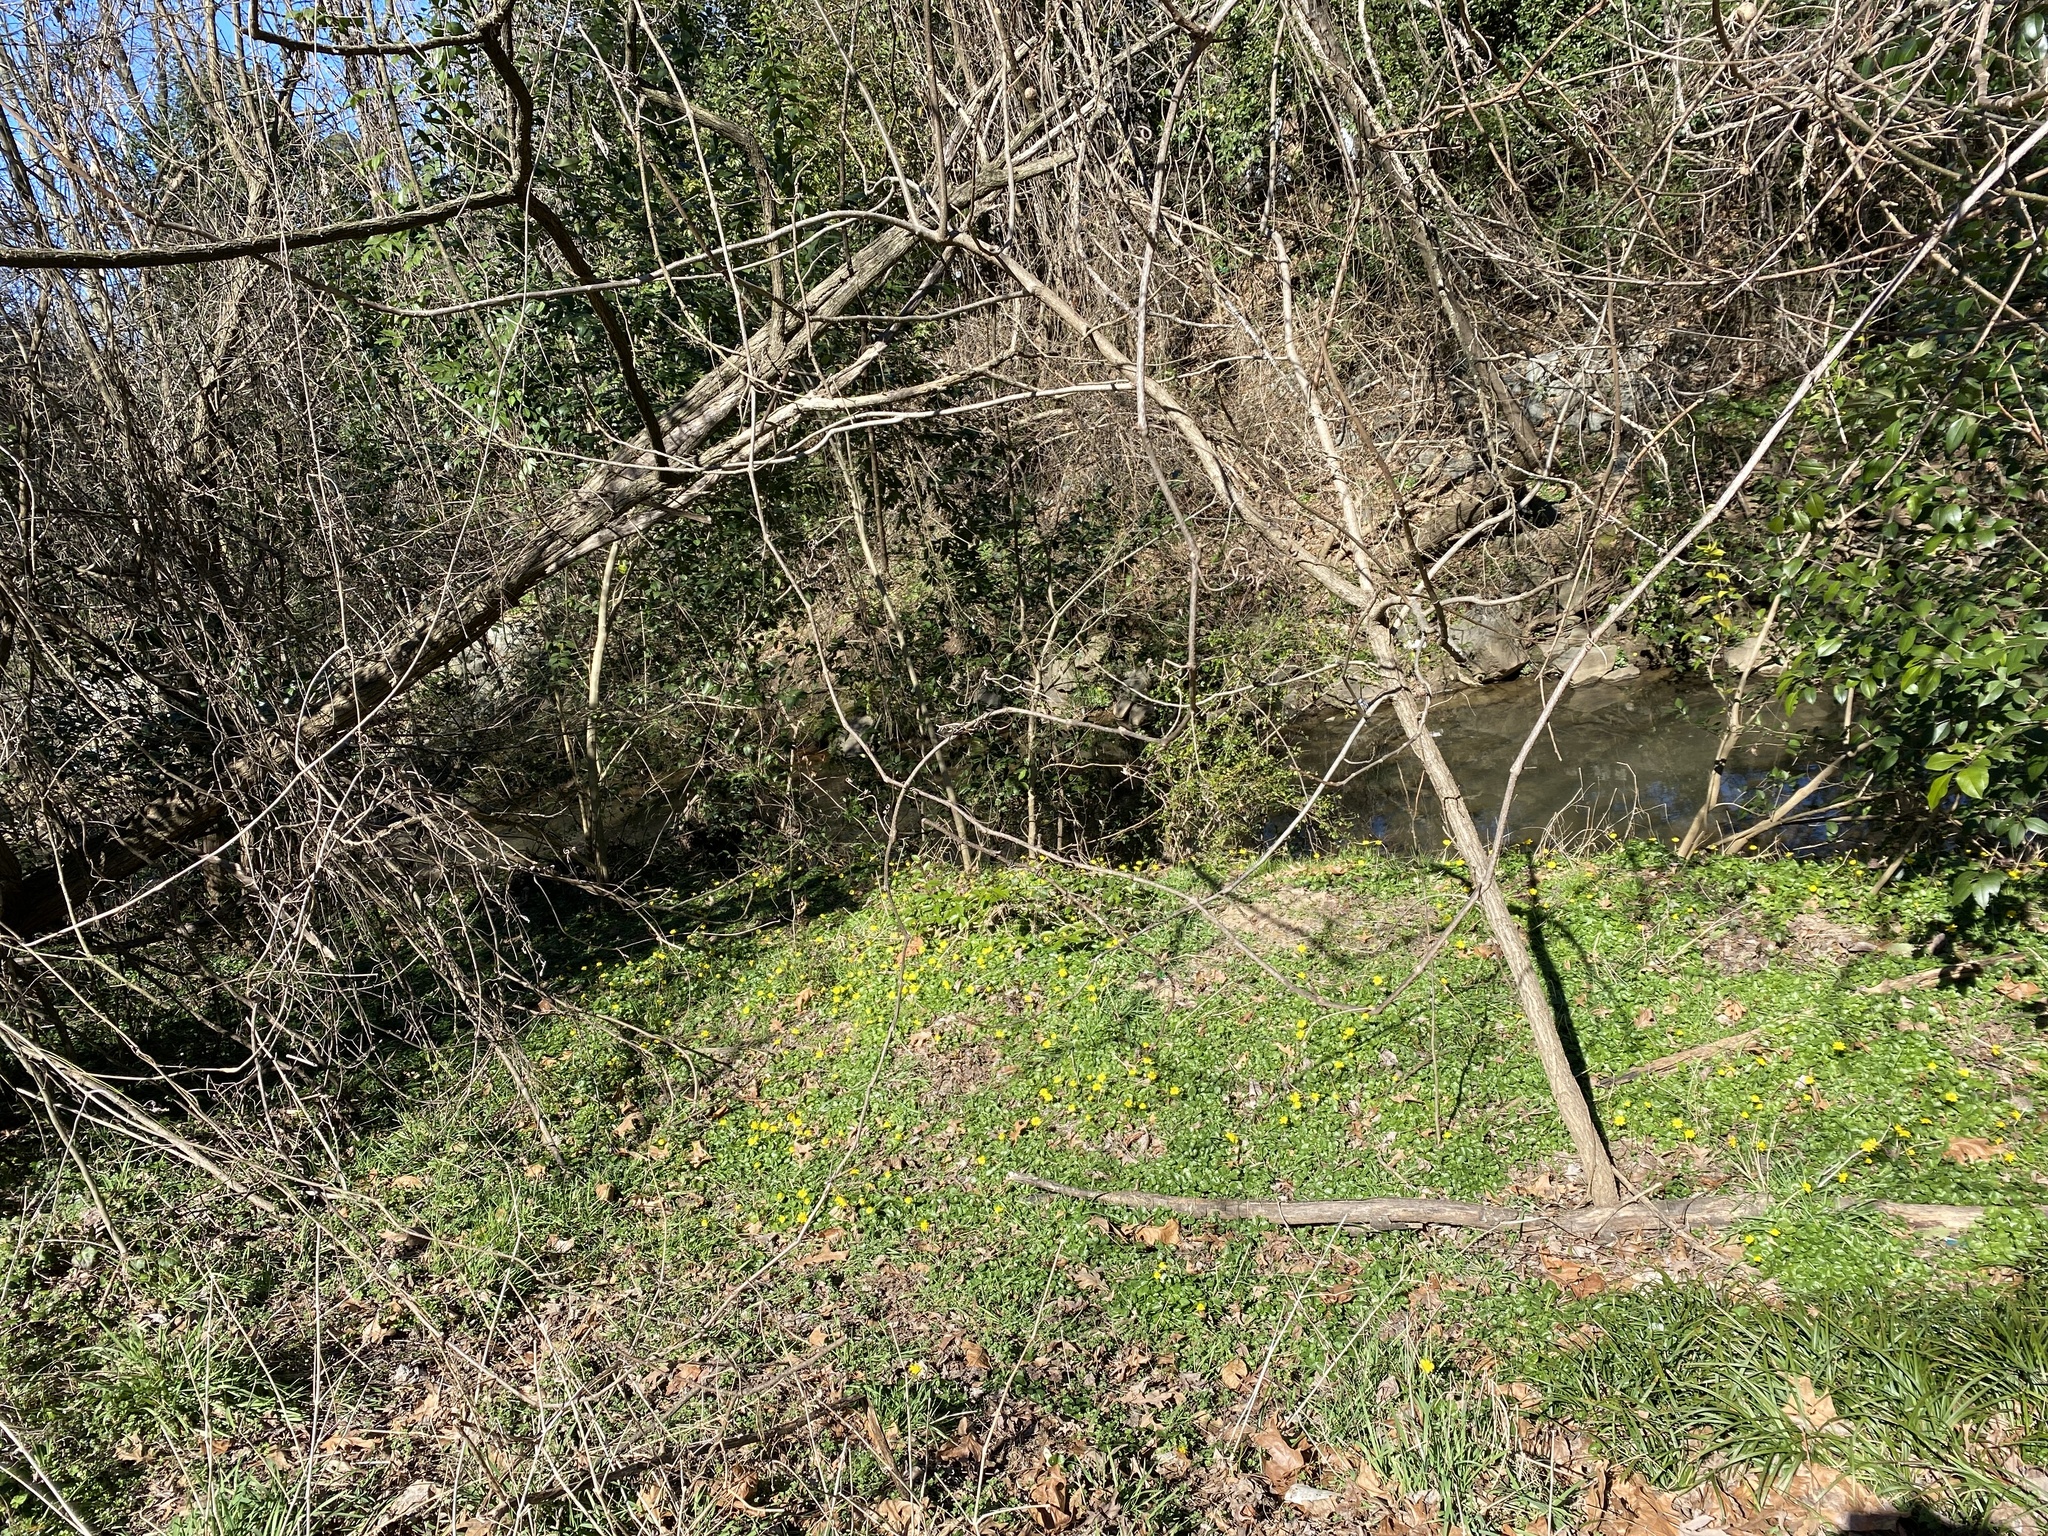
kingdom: Plantae
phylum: Tracheophyta
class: Magnoliopsida
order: Ranunculales
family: Ranunculaceae
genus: Ficaria
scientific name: Ficaria verna
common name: Lesser celandine
